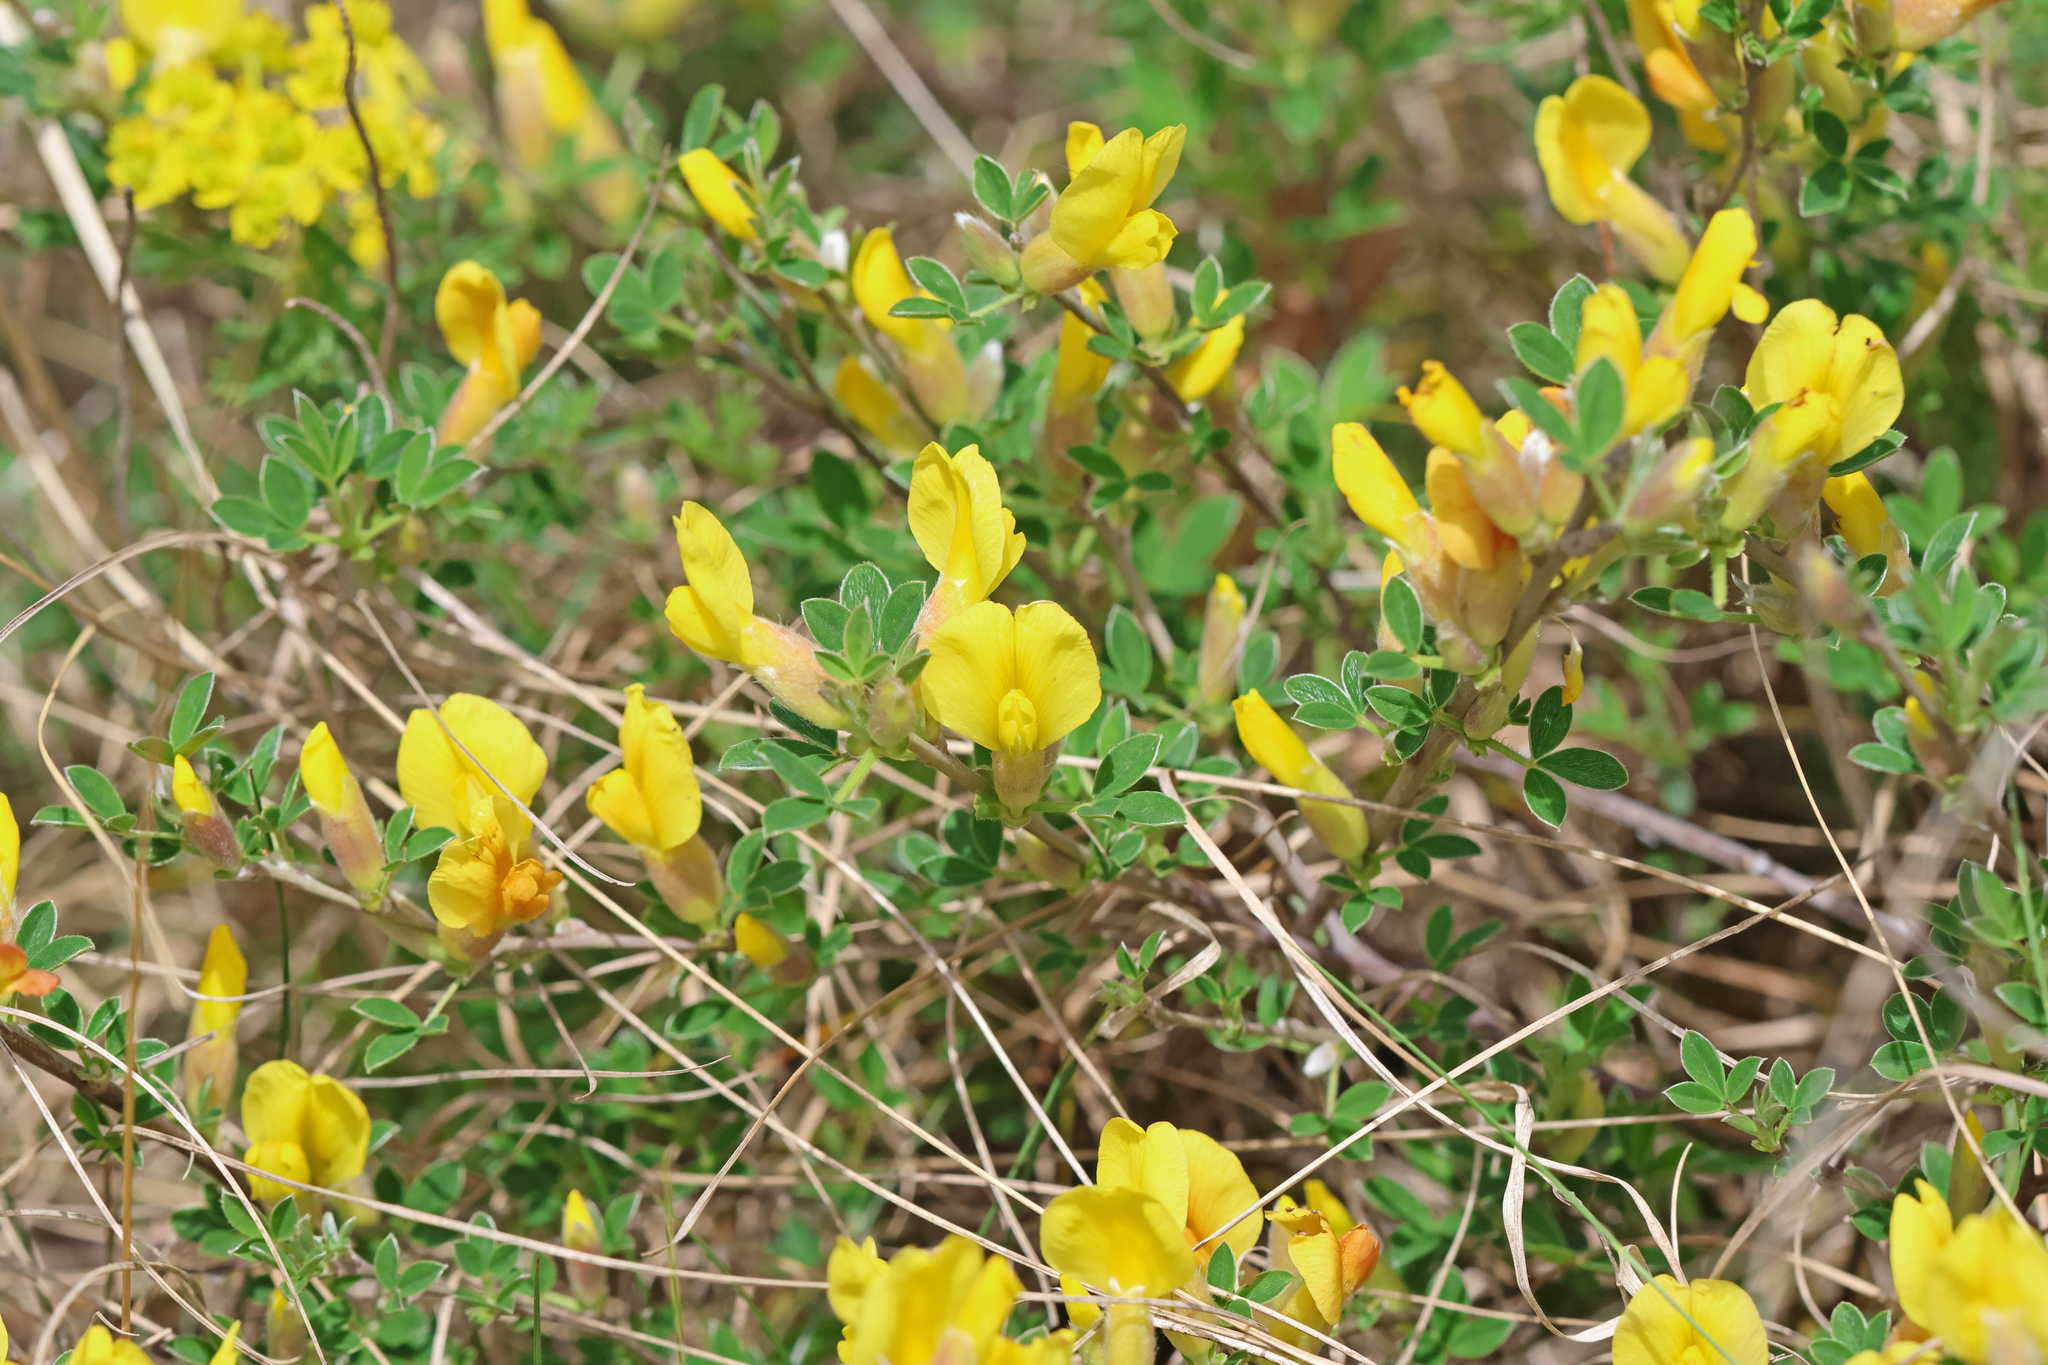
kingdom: Plantae
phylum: Tracheophyta
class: Magnoliopsida
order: Fabales
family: Fabaceae
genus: Chamaecytisus
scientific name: Chamaecytisus ratisbonensis
